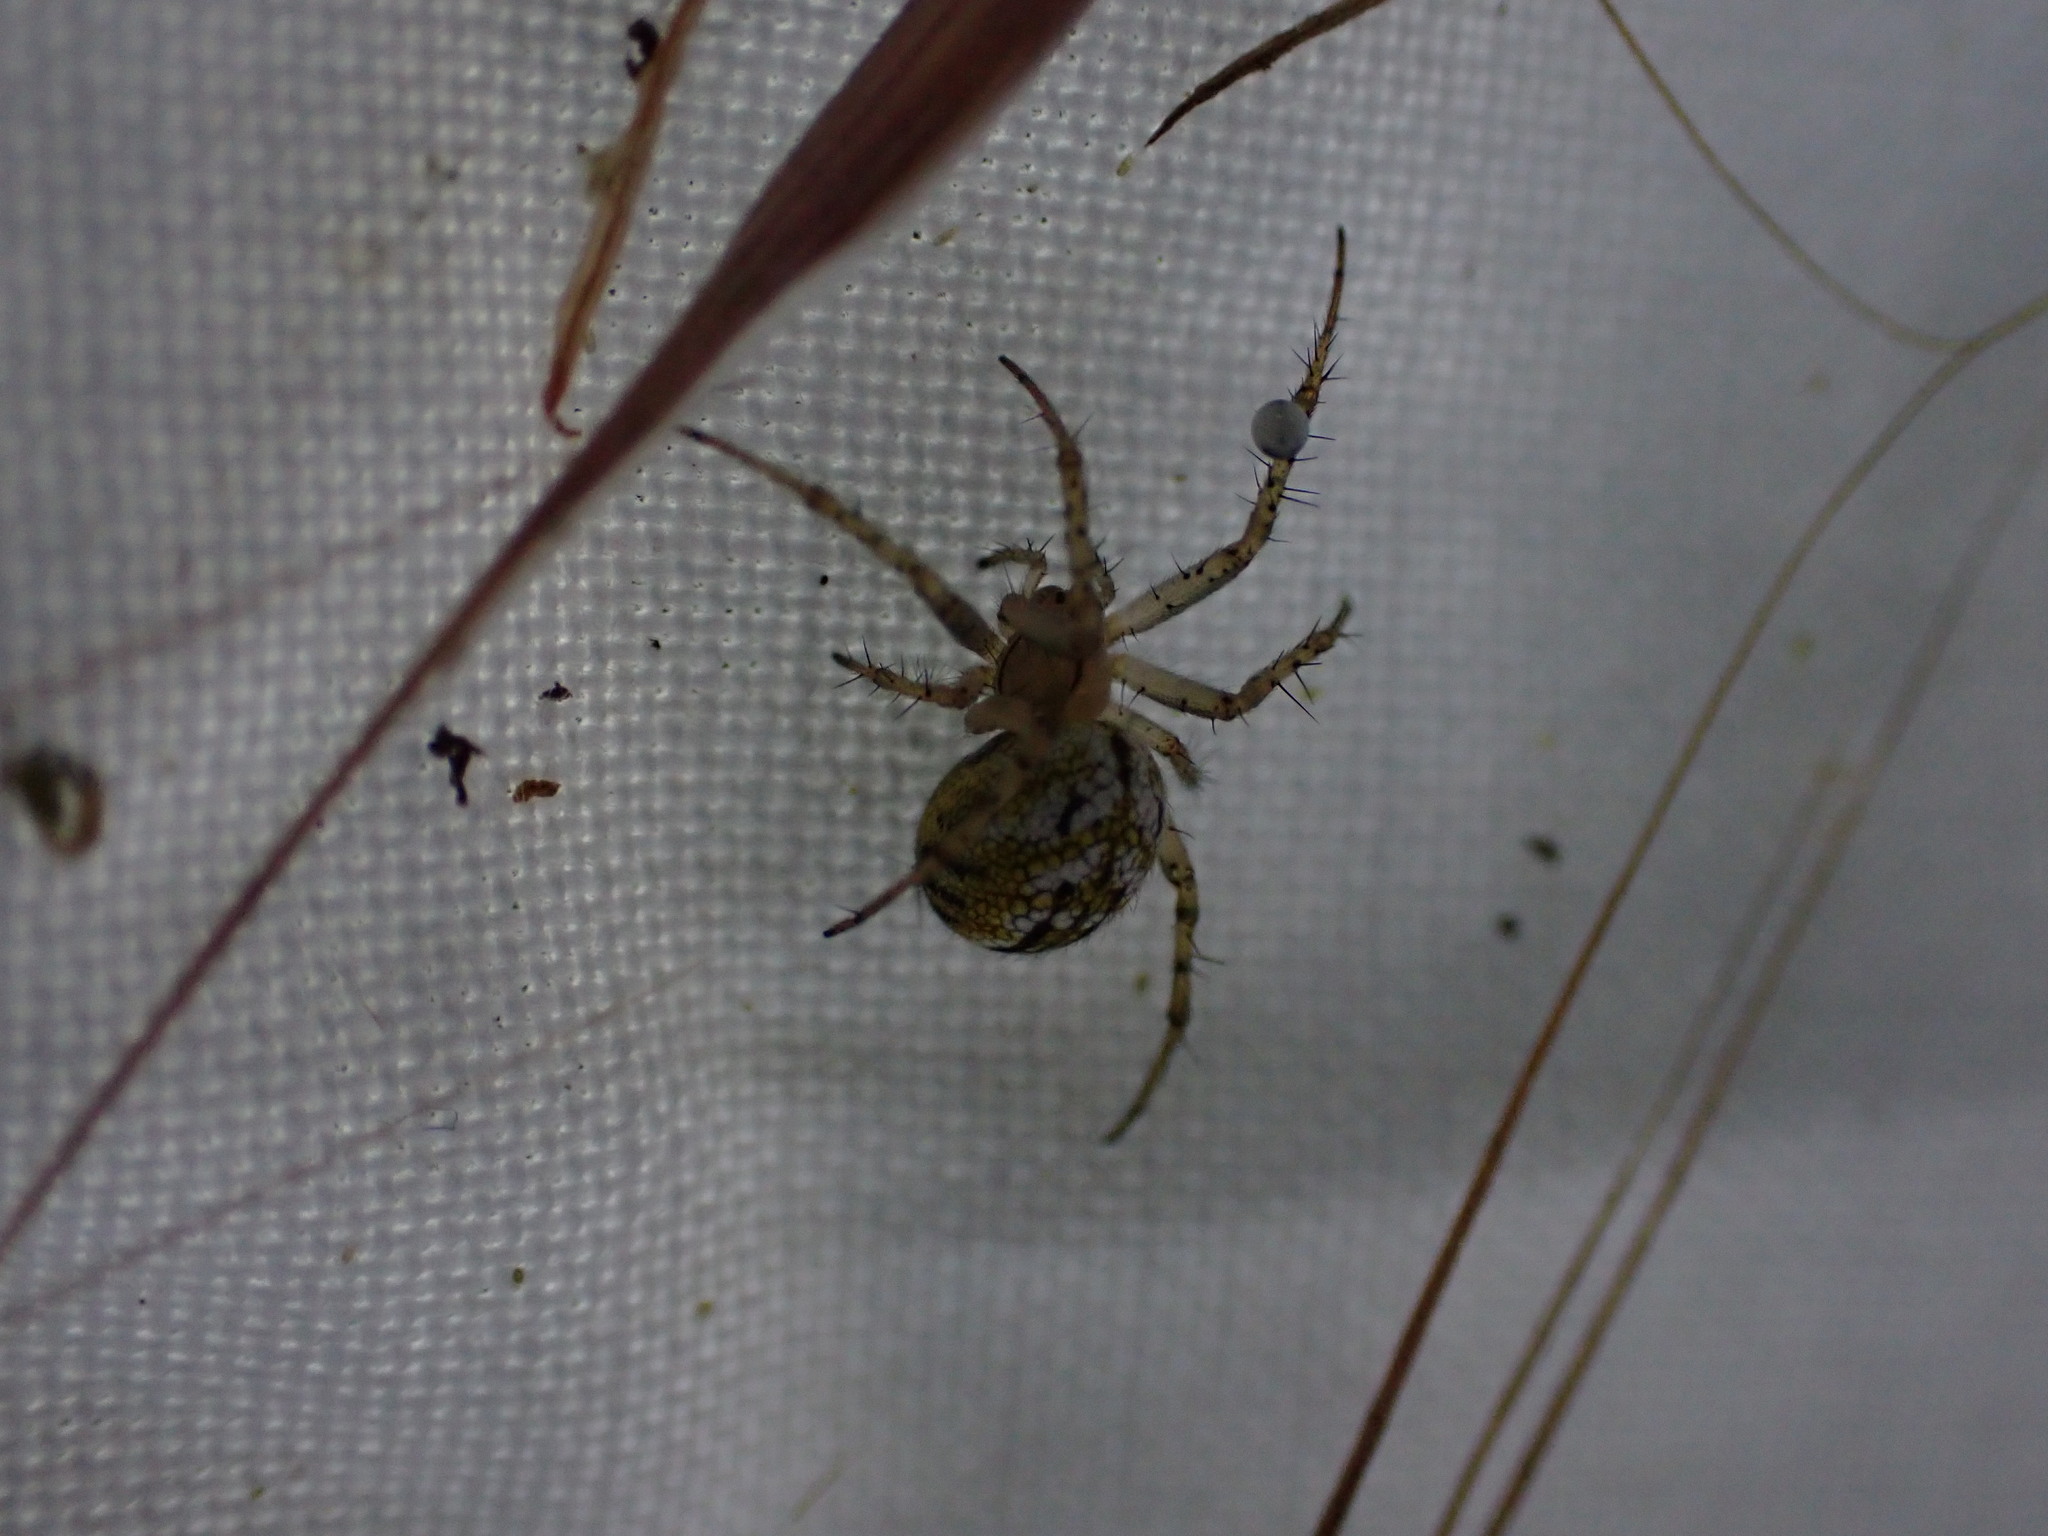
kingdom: Animalia
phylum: Arthropoda
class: Arachnida
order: Araneae
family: Araneidae
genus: Mangora
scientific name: Mangora acalypha
